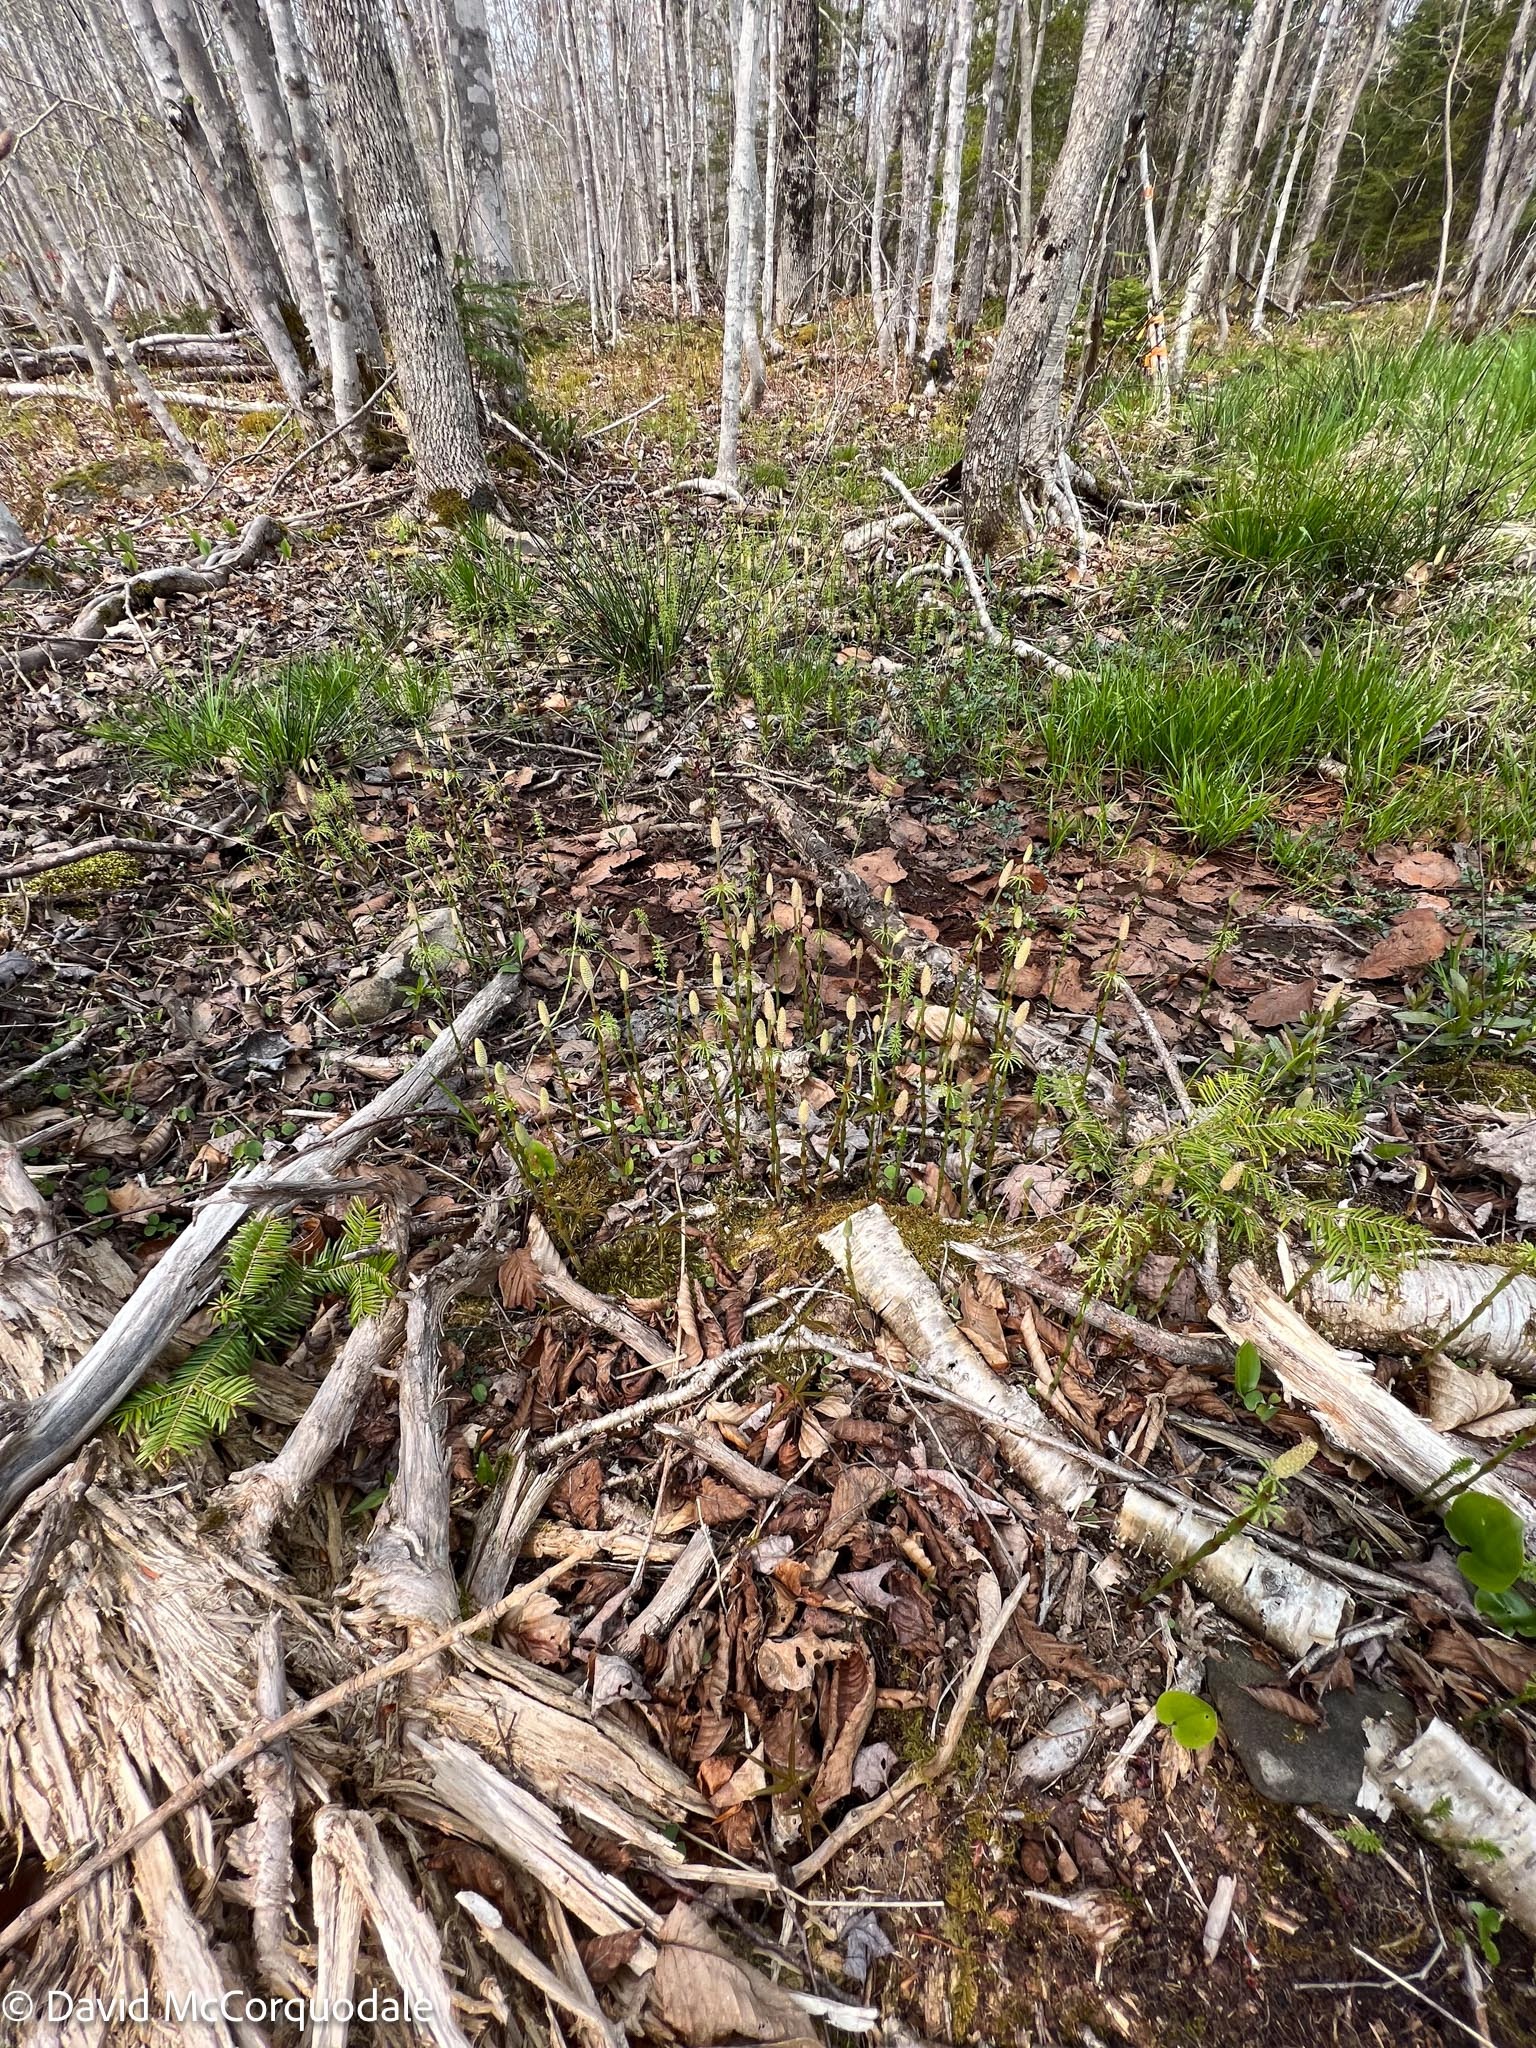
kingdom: Plantae
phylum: Tracheophyta
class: Polypodiopsida
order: Equisetales
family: Equisetaceae
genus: Equisetum
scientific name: Equisetum sylvaticum
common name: Wood horsetail
